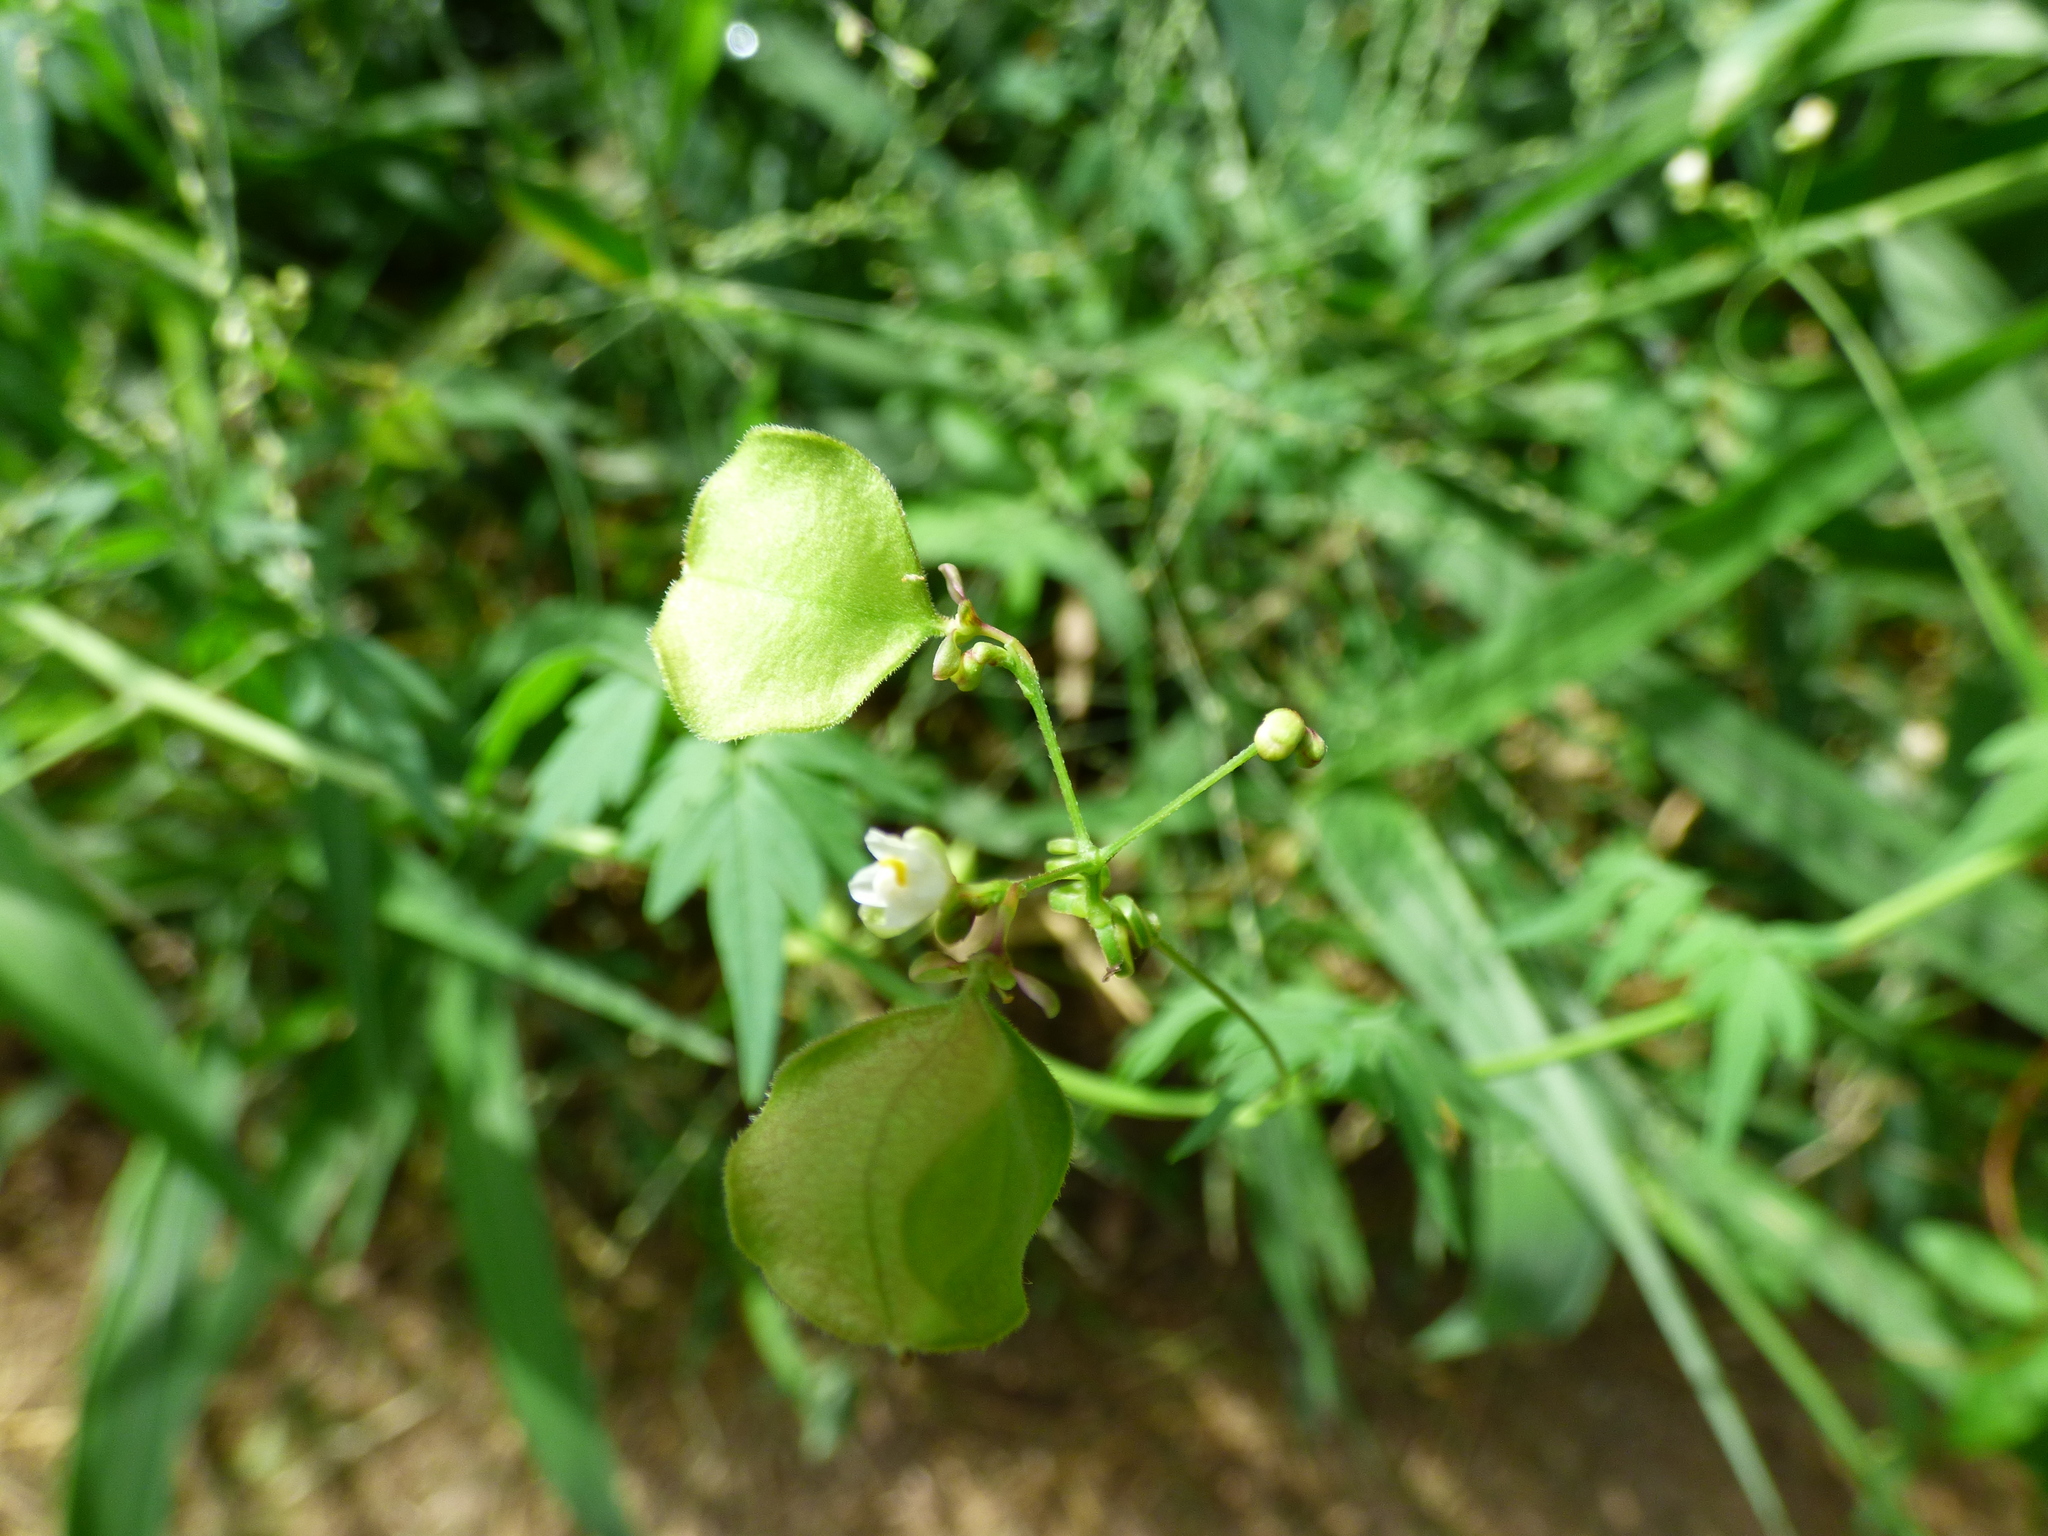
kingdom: Plantae
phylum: Tracheophyta
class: Magnoliopsida
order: Sapindales
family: Sapindaceae
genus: Cardiospermum
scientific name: Cardiospermum halicacabum
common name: Balloon vine
